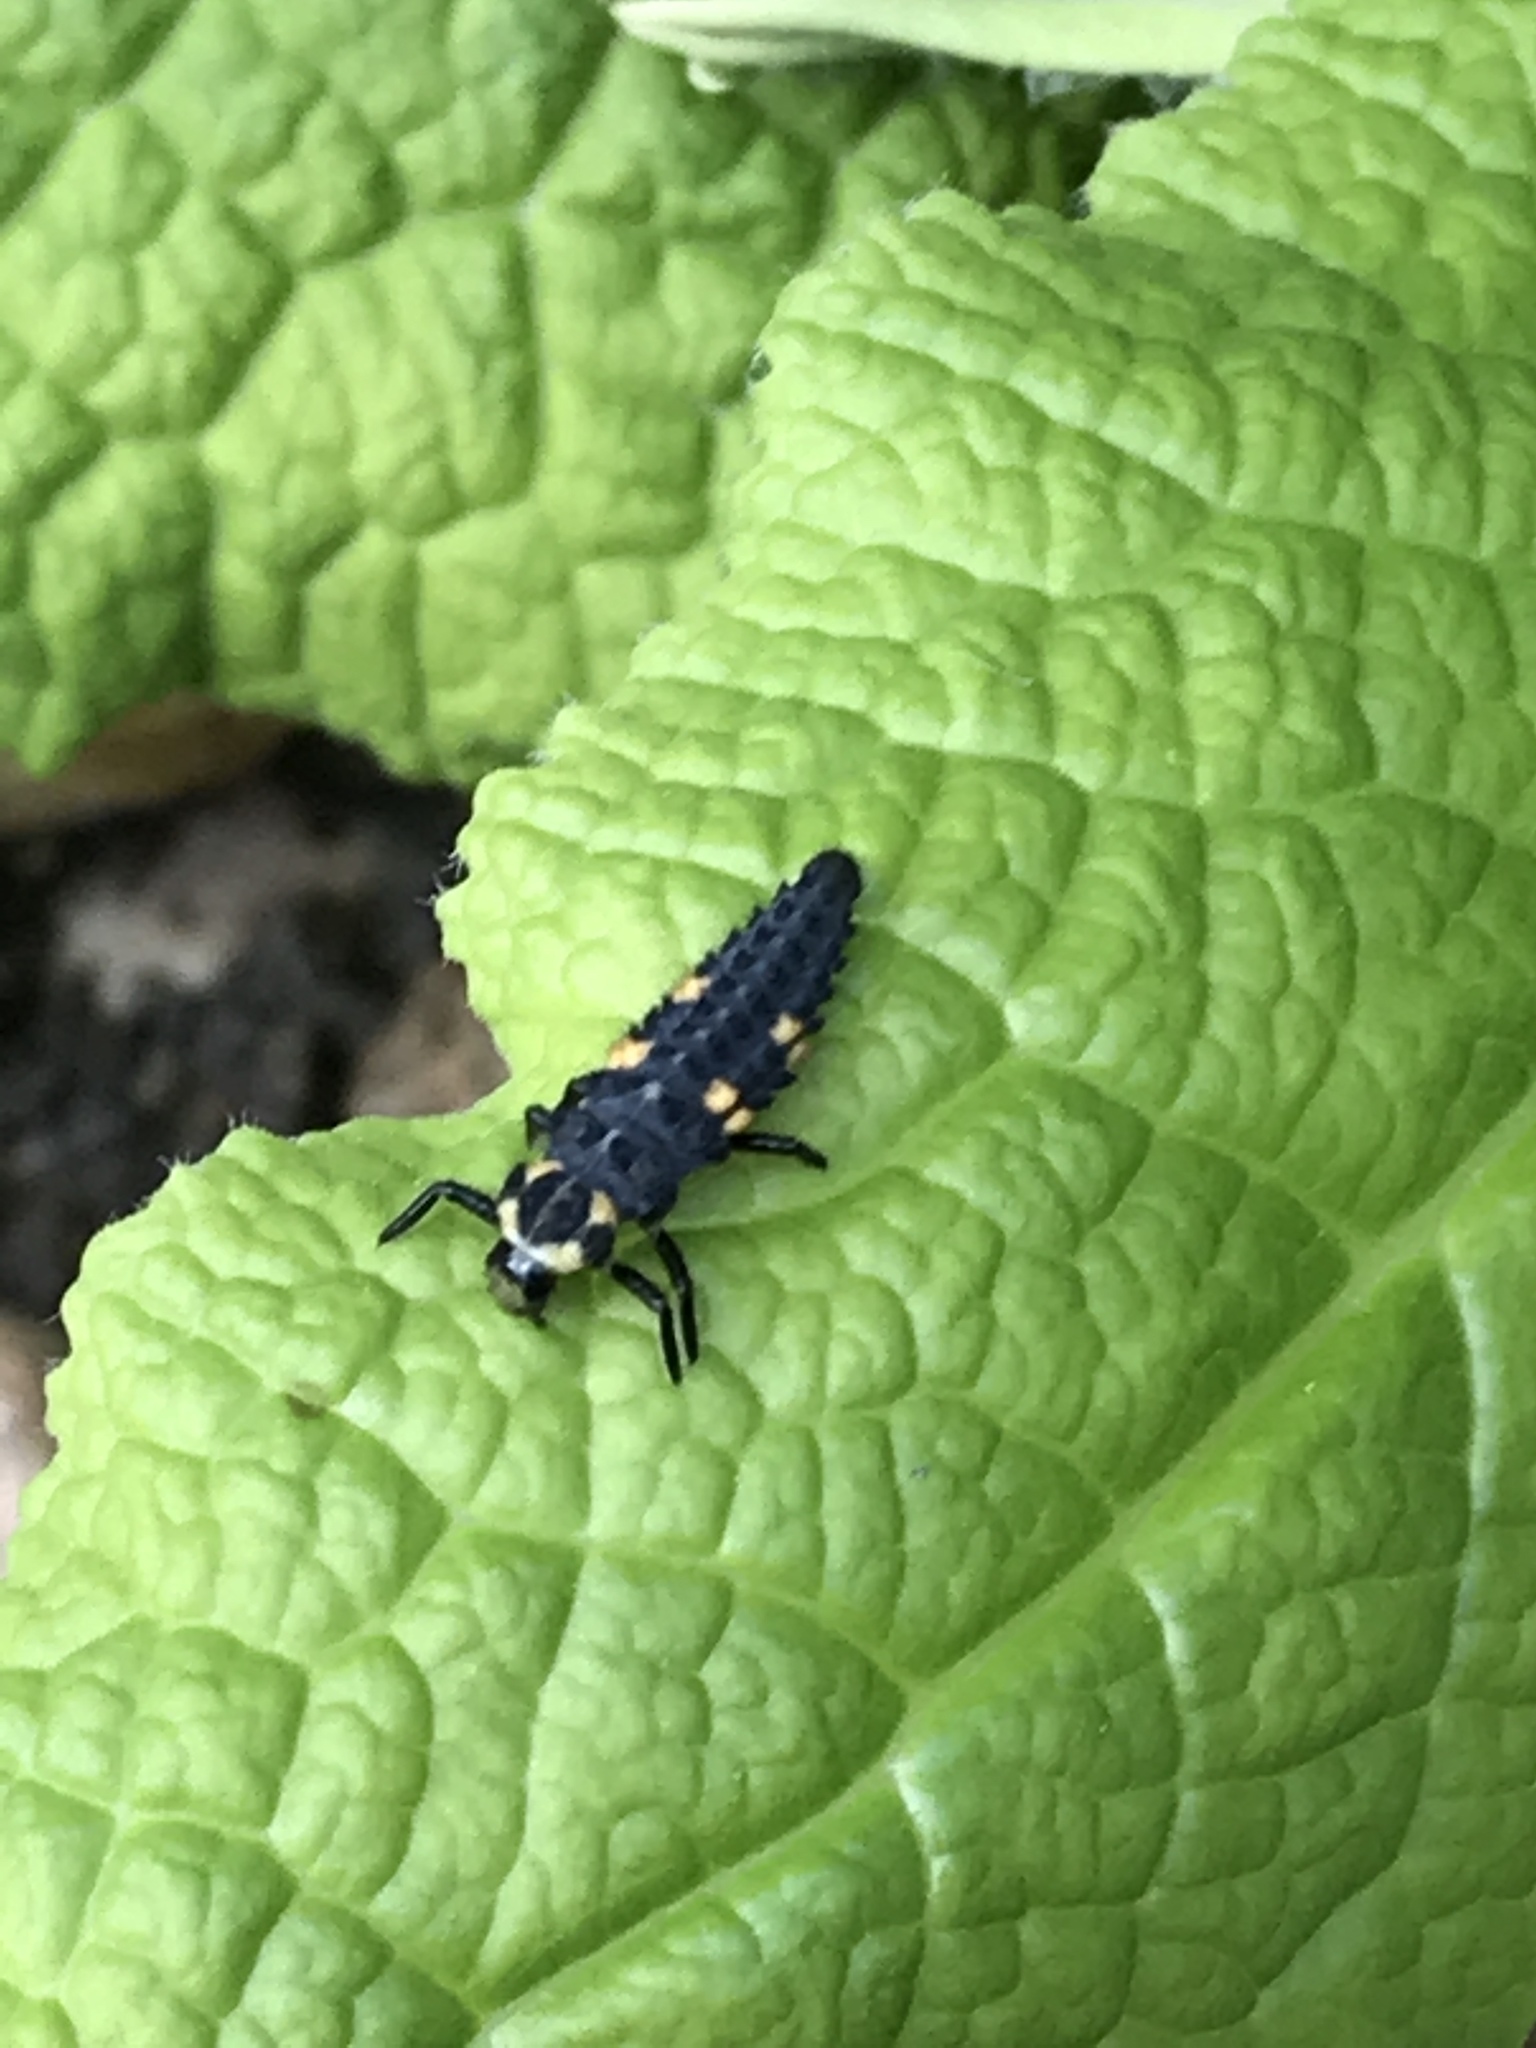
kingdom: Animalia
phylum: Arthropoda
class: Insecta
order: Coleoptera
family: Coccinellidae
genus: Coccinella
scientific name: Coccinella septempunctata
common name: Sevenspotted lady beetle
